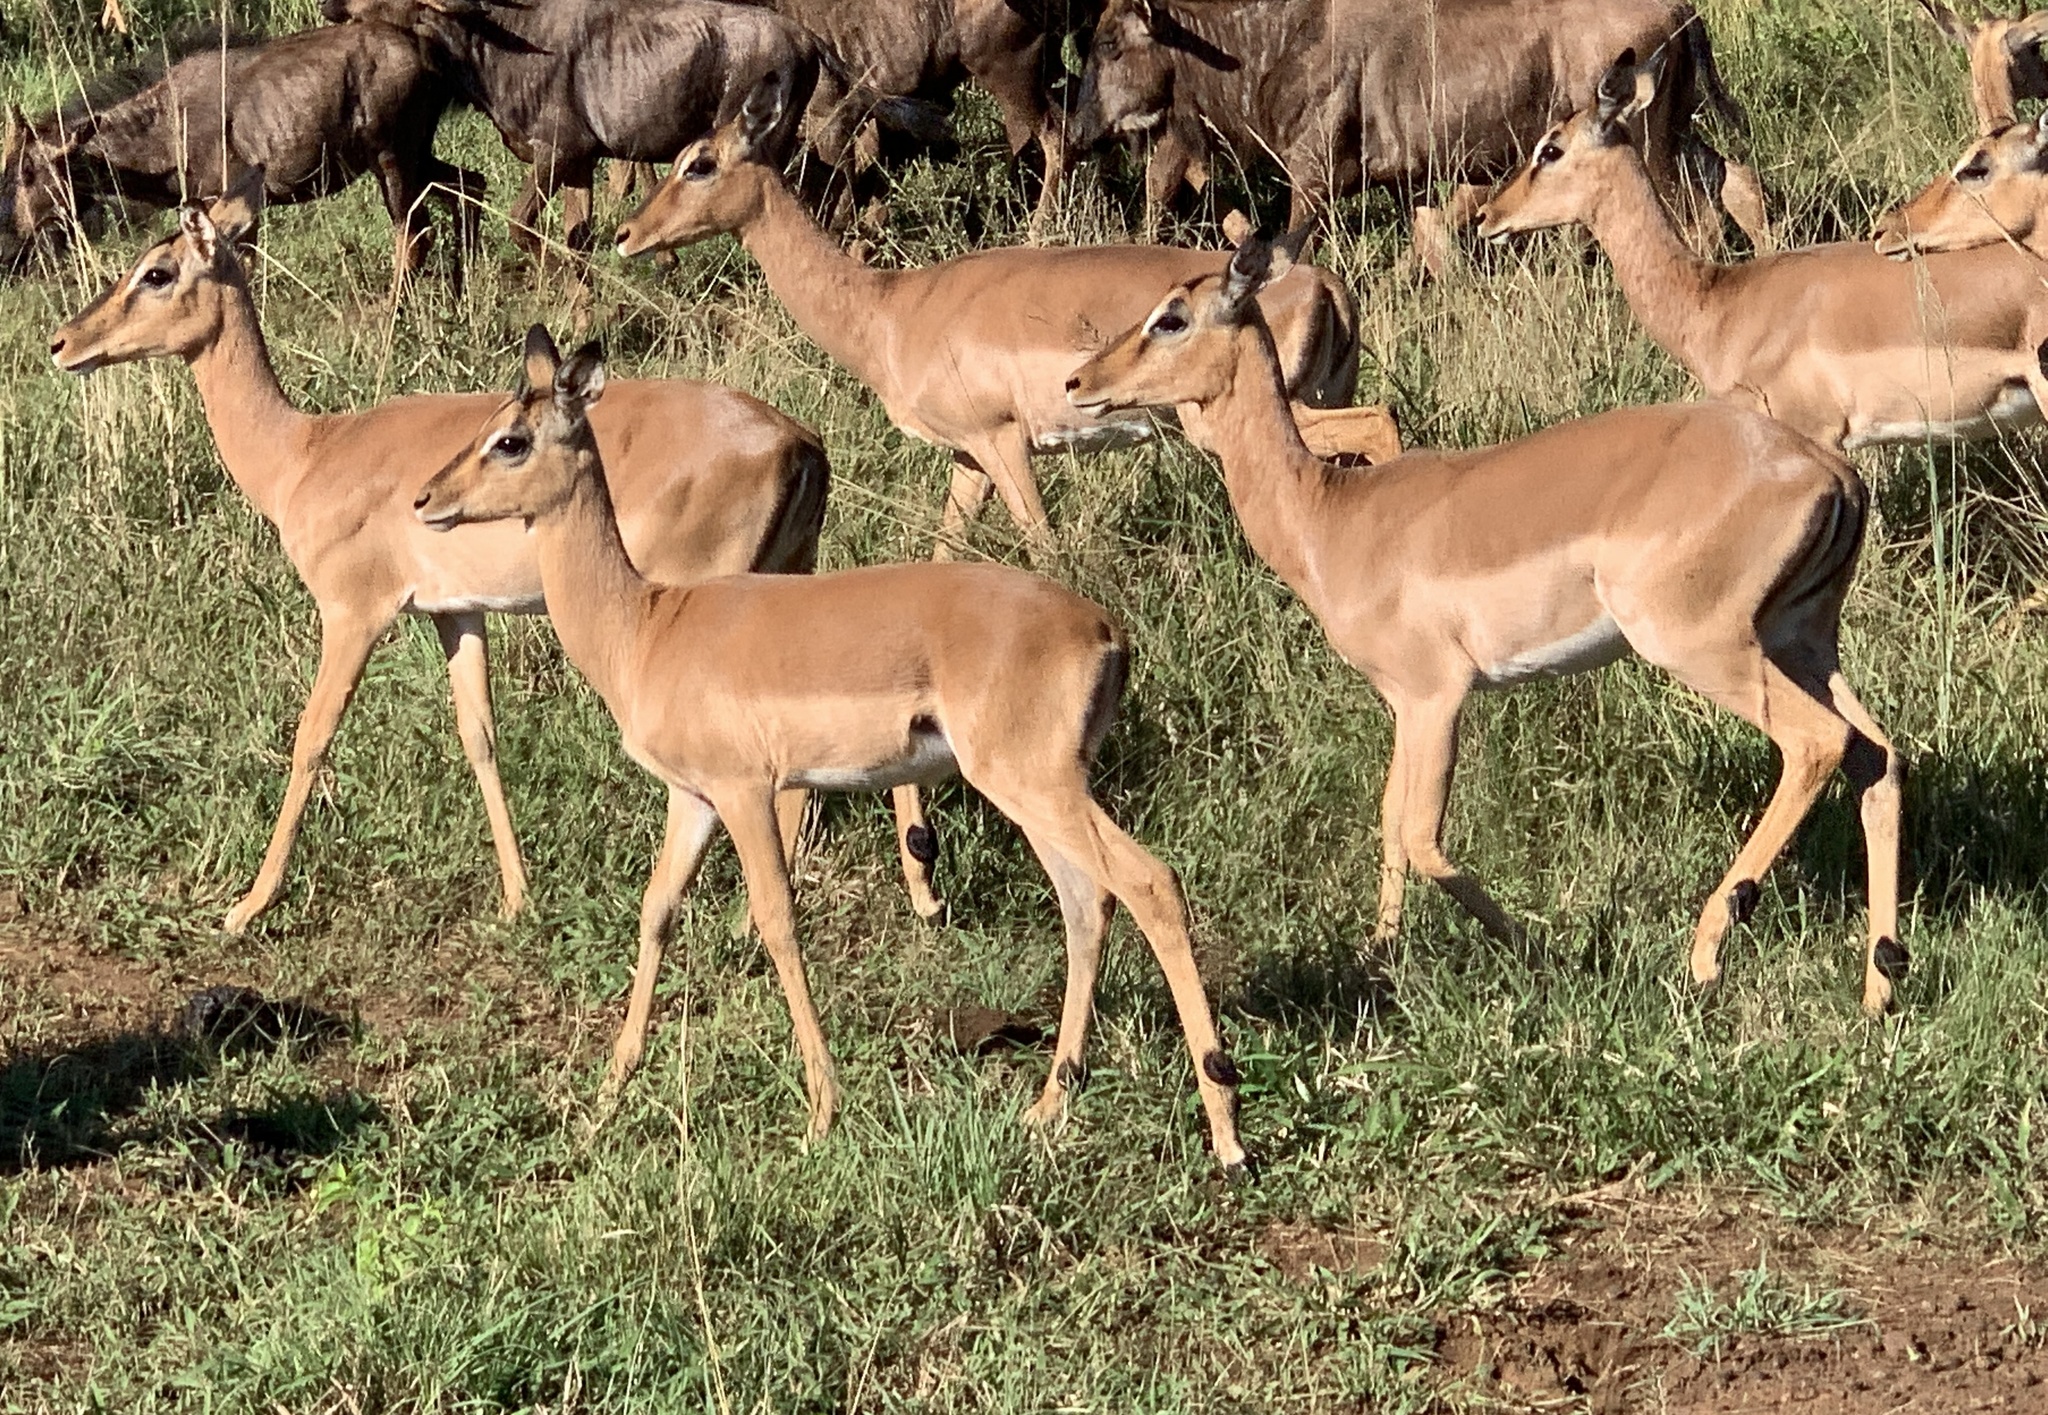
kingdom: Animalia
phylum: Chordata
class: Mammalia
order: Artiodactyla
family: Bovidae
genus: Aepyceros
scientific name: Aepyceros melampus
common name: Impala
